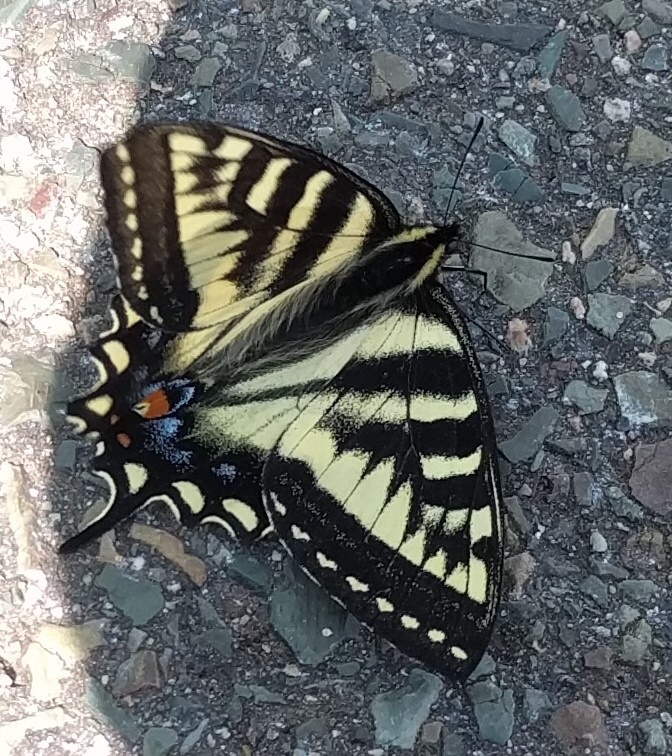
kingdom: Animalia
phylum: Arthropoda
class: Insecta
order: Lepidoptera
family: Papilionidae
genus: Papilio
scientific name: Papilio canadensis
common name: Canadian tiger swallowtail
